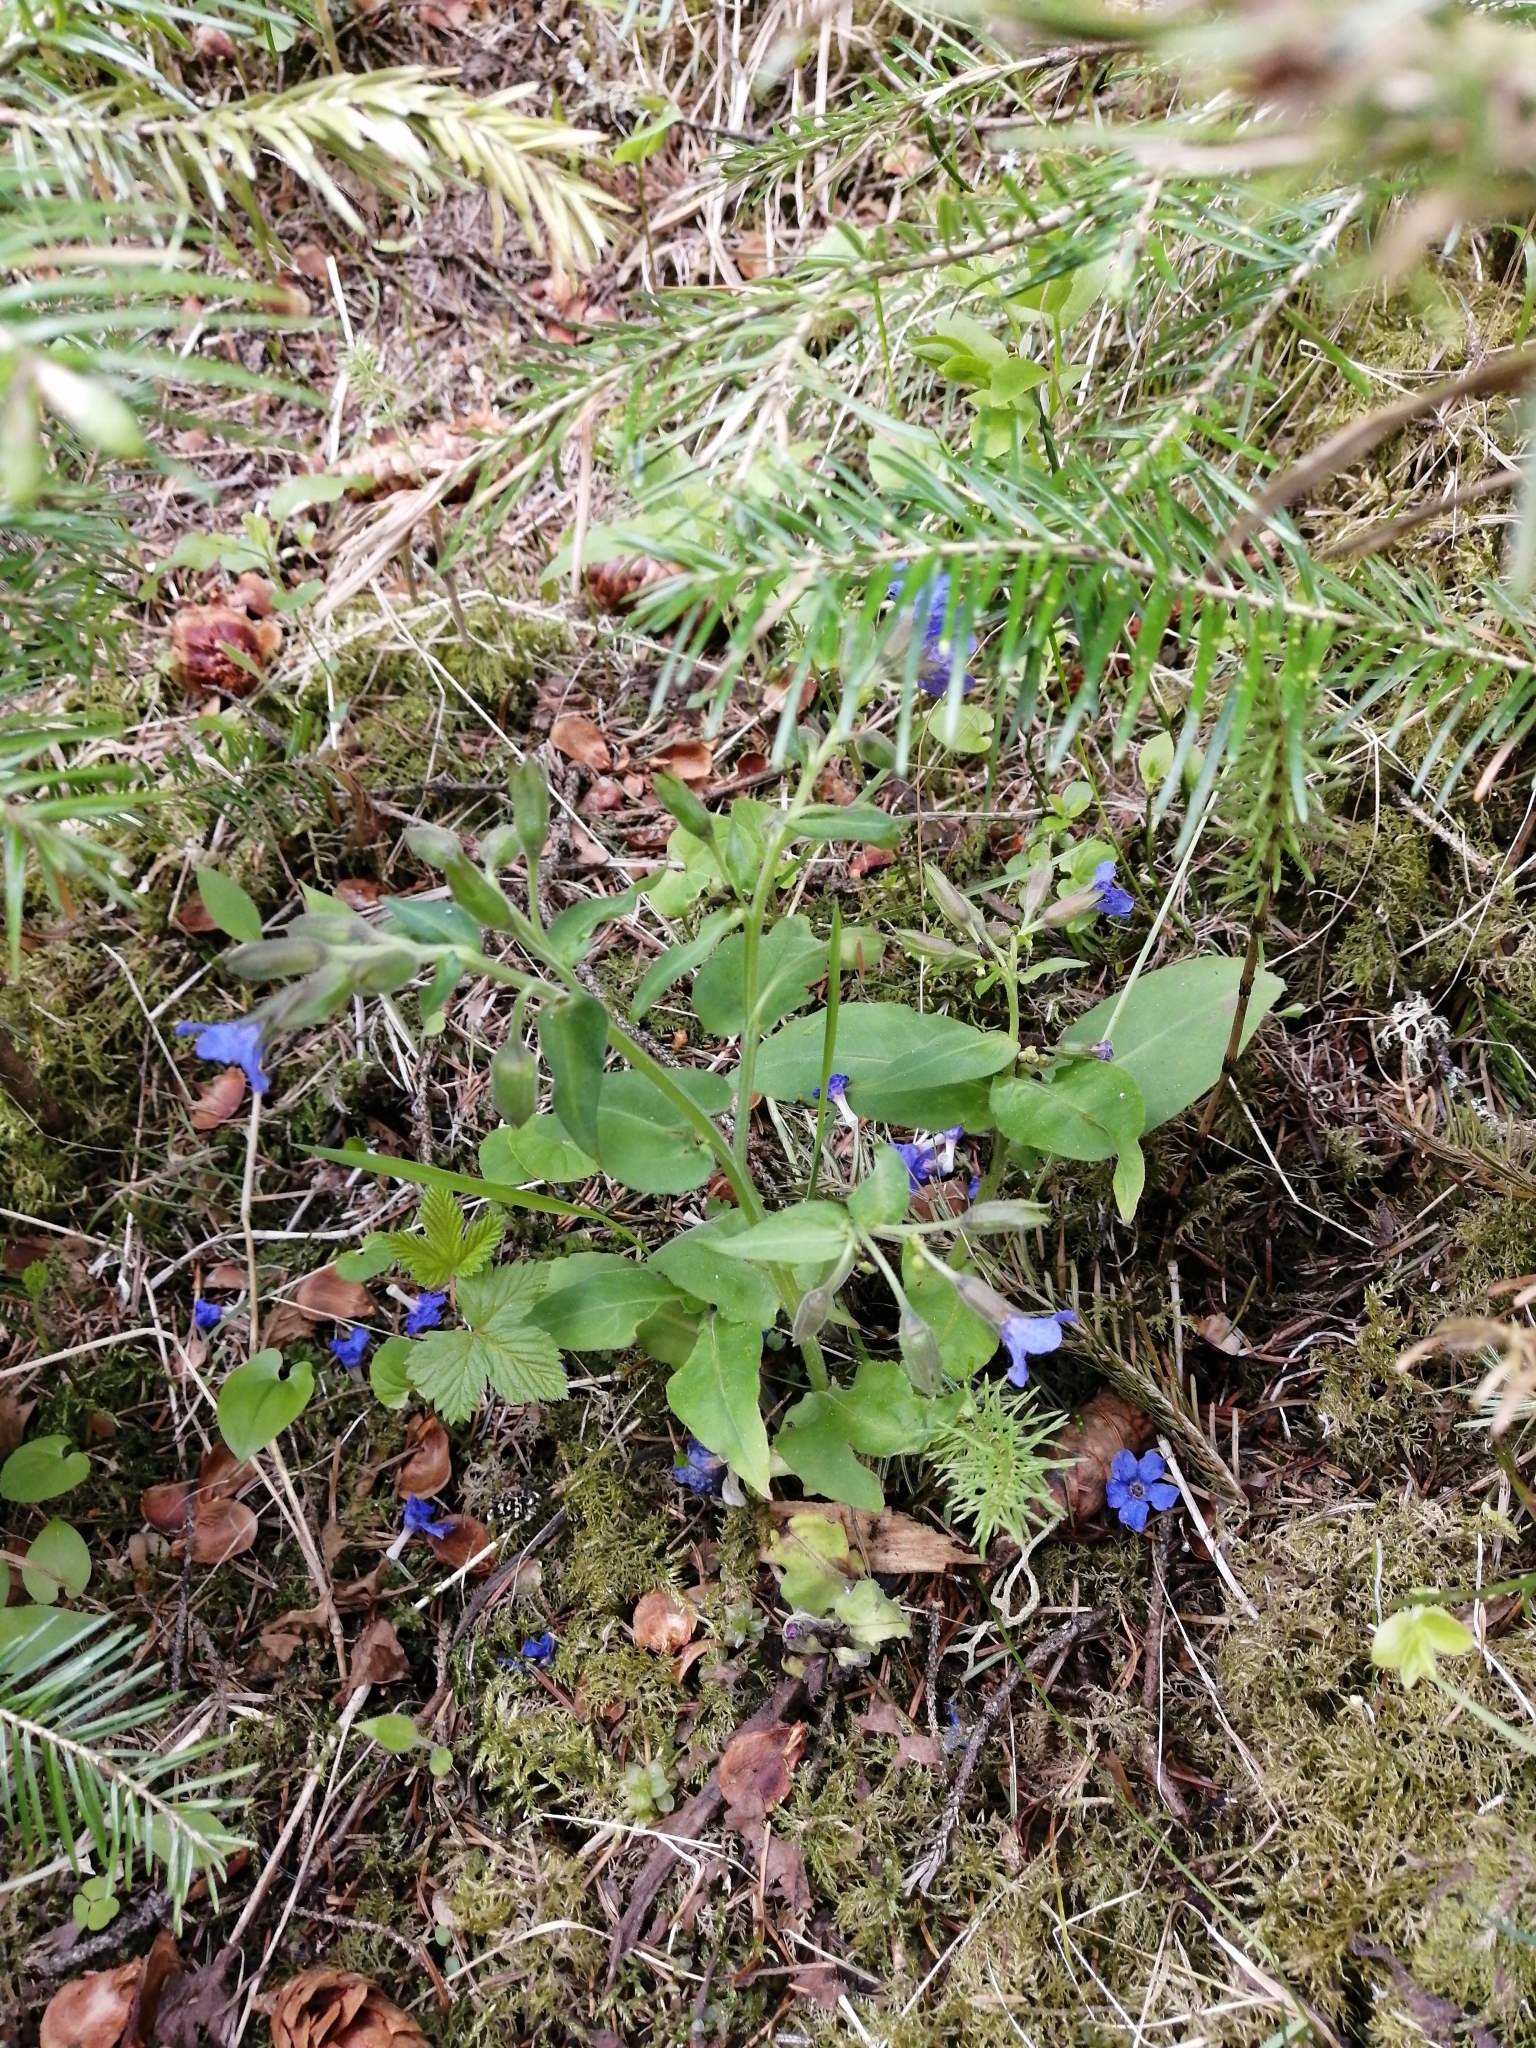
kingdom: Plantae
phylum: Tracheophyta
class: Magnoliopsida
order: Boraginales
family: Boraginaceae
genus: Pulmonaria
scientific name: Pulmonaria mollis
